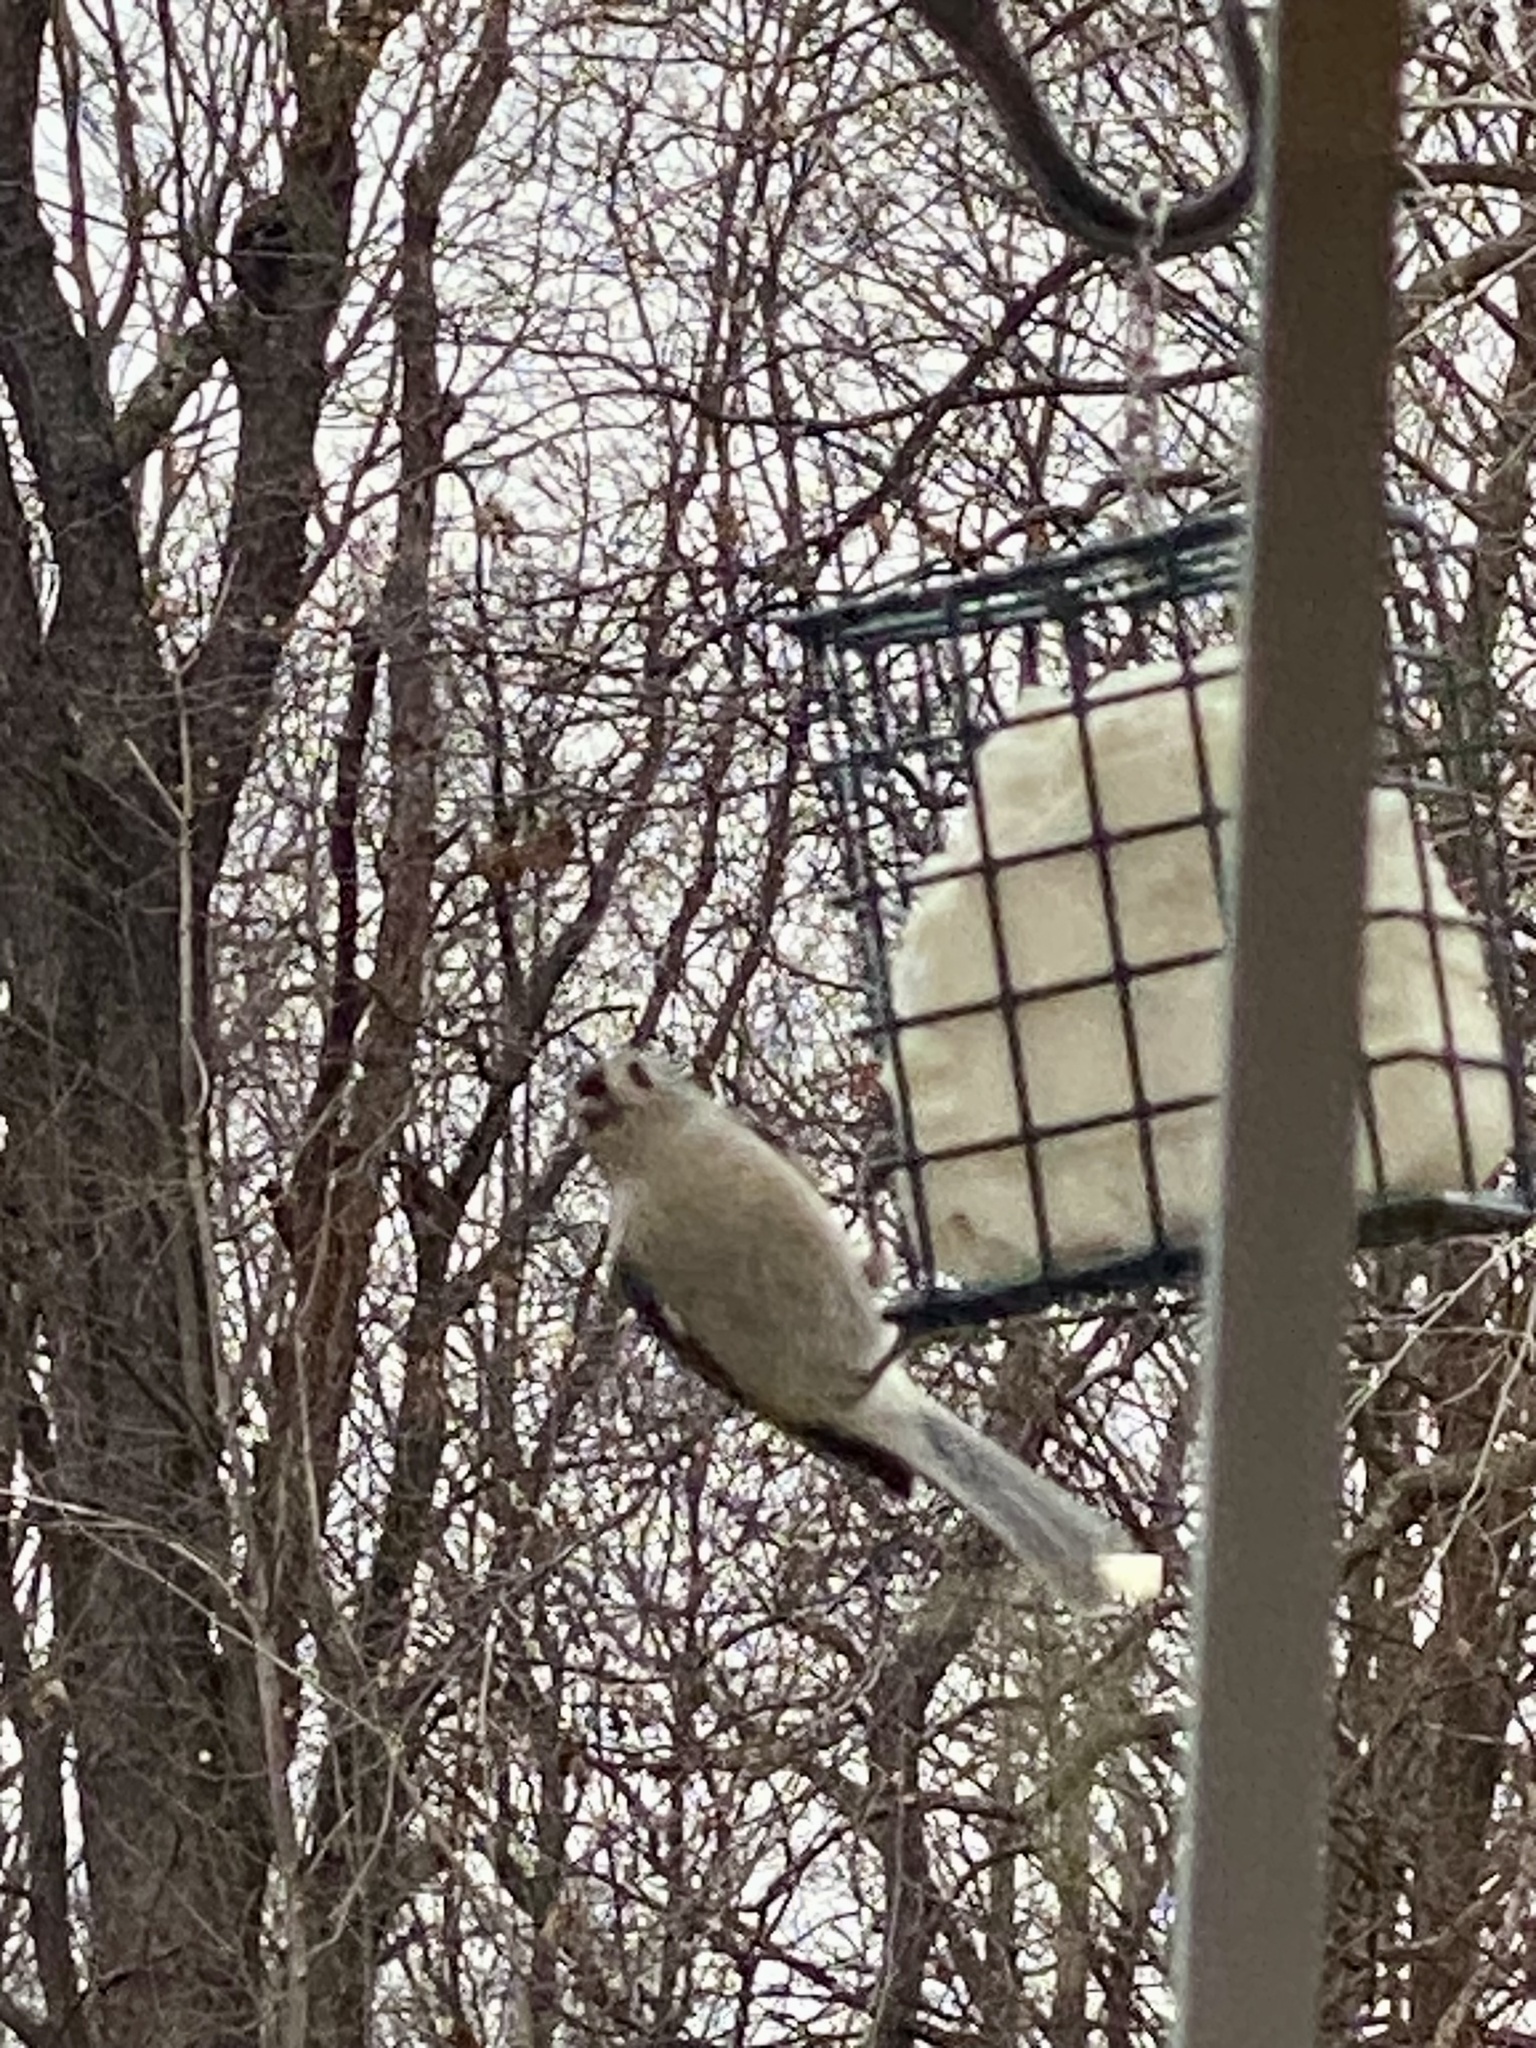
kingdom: Animalia
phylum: Chordata
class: Aves
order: Passeriformes
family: Paridae
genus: Baeolophus
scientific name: Baeolophus bicolor
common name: Tufted titmouse
